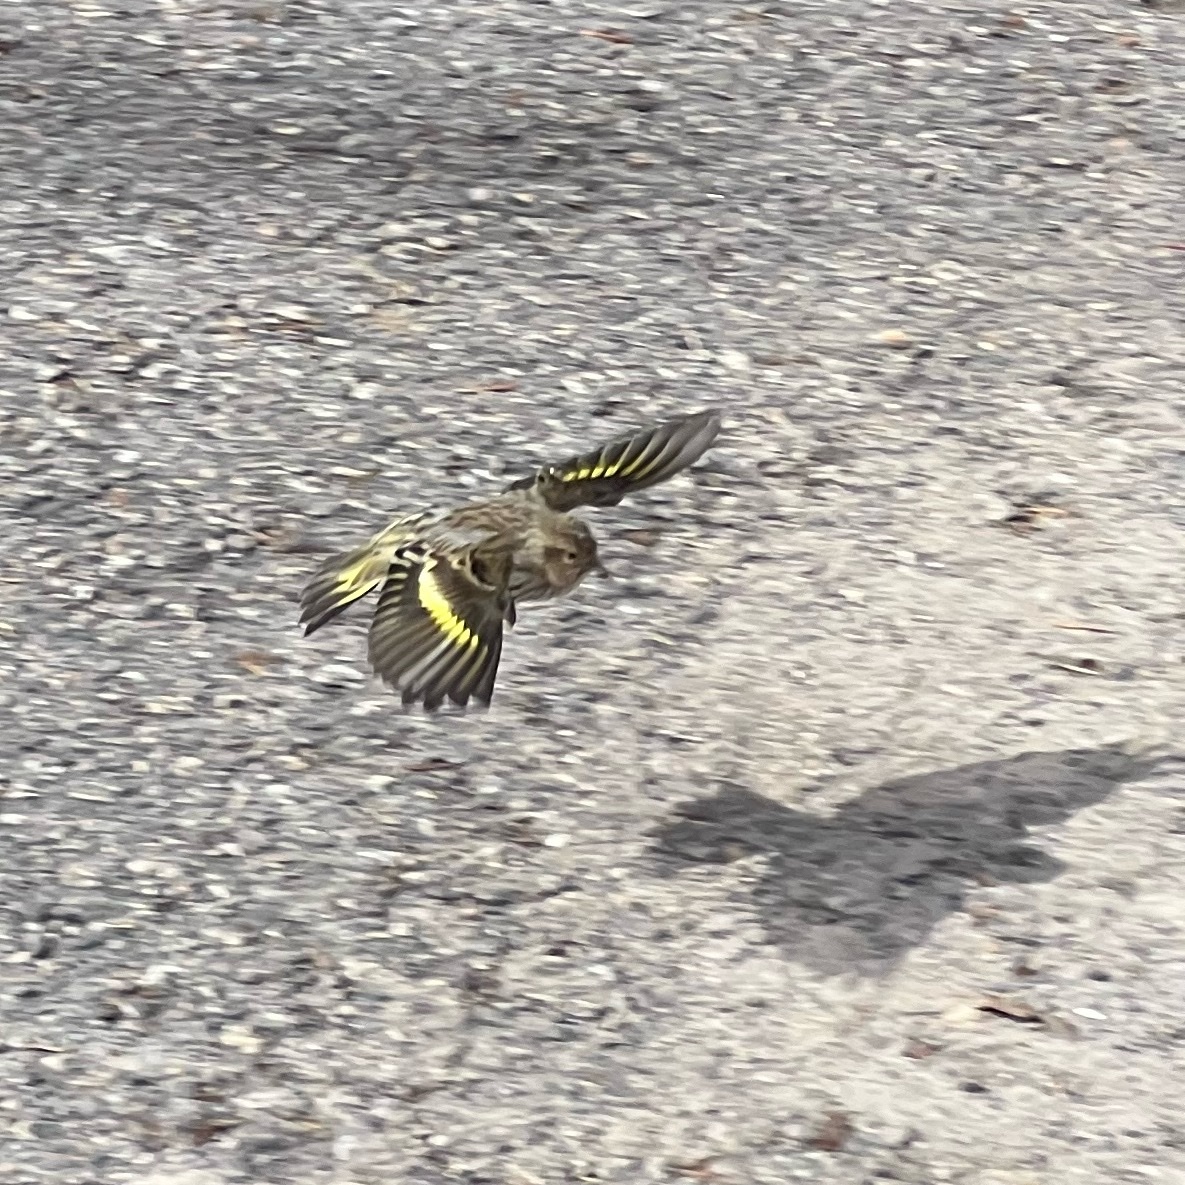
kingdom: Animalia
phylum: Chordata
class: Aves
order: Passeriformes
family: Fringillidae
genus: Spinus
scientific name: Spinus pinus
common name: Pine siskin
